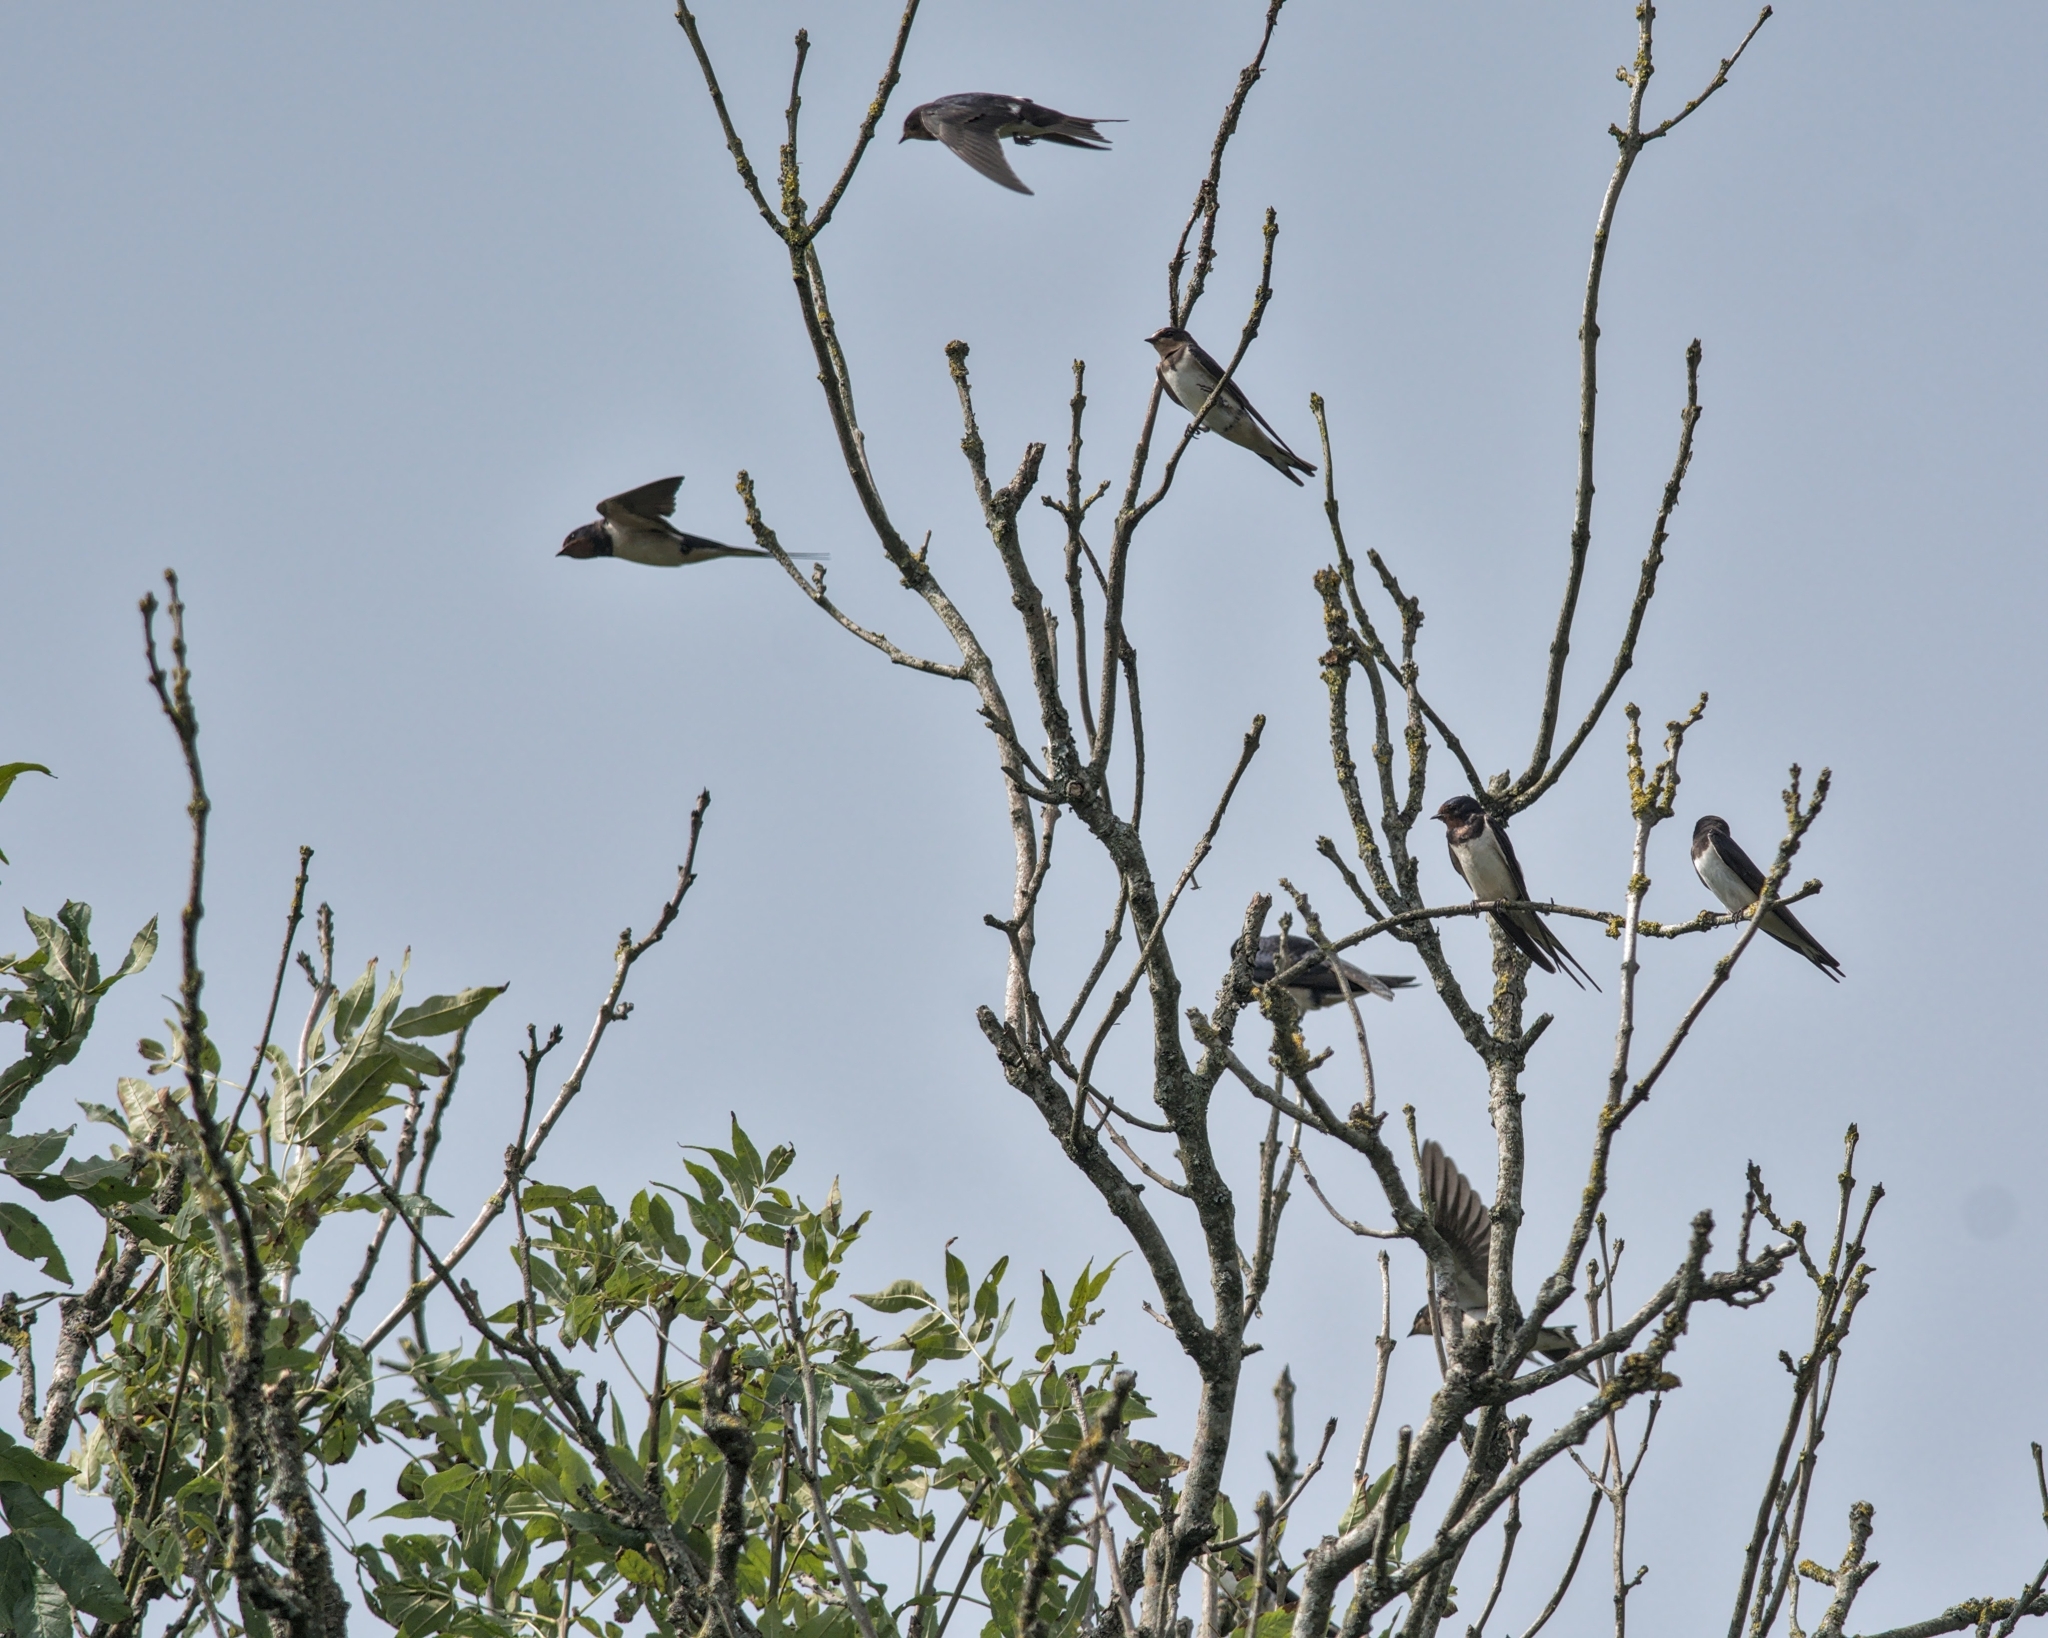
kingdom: Animalia
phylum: Chordata
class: Aves
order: Passeriformes
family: Hirundinidae
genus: Hirundo
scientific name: Hirundo rustica
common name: Barn swallow
